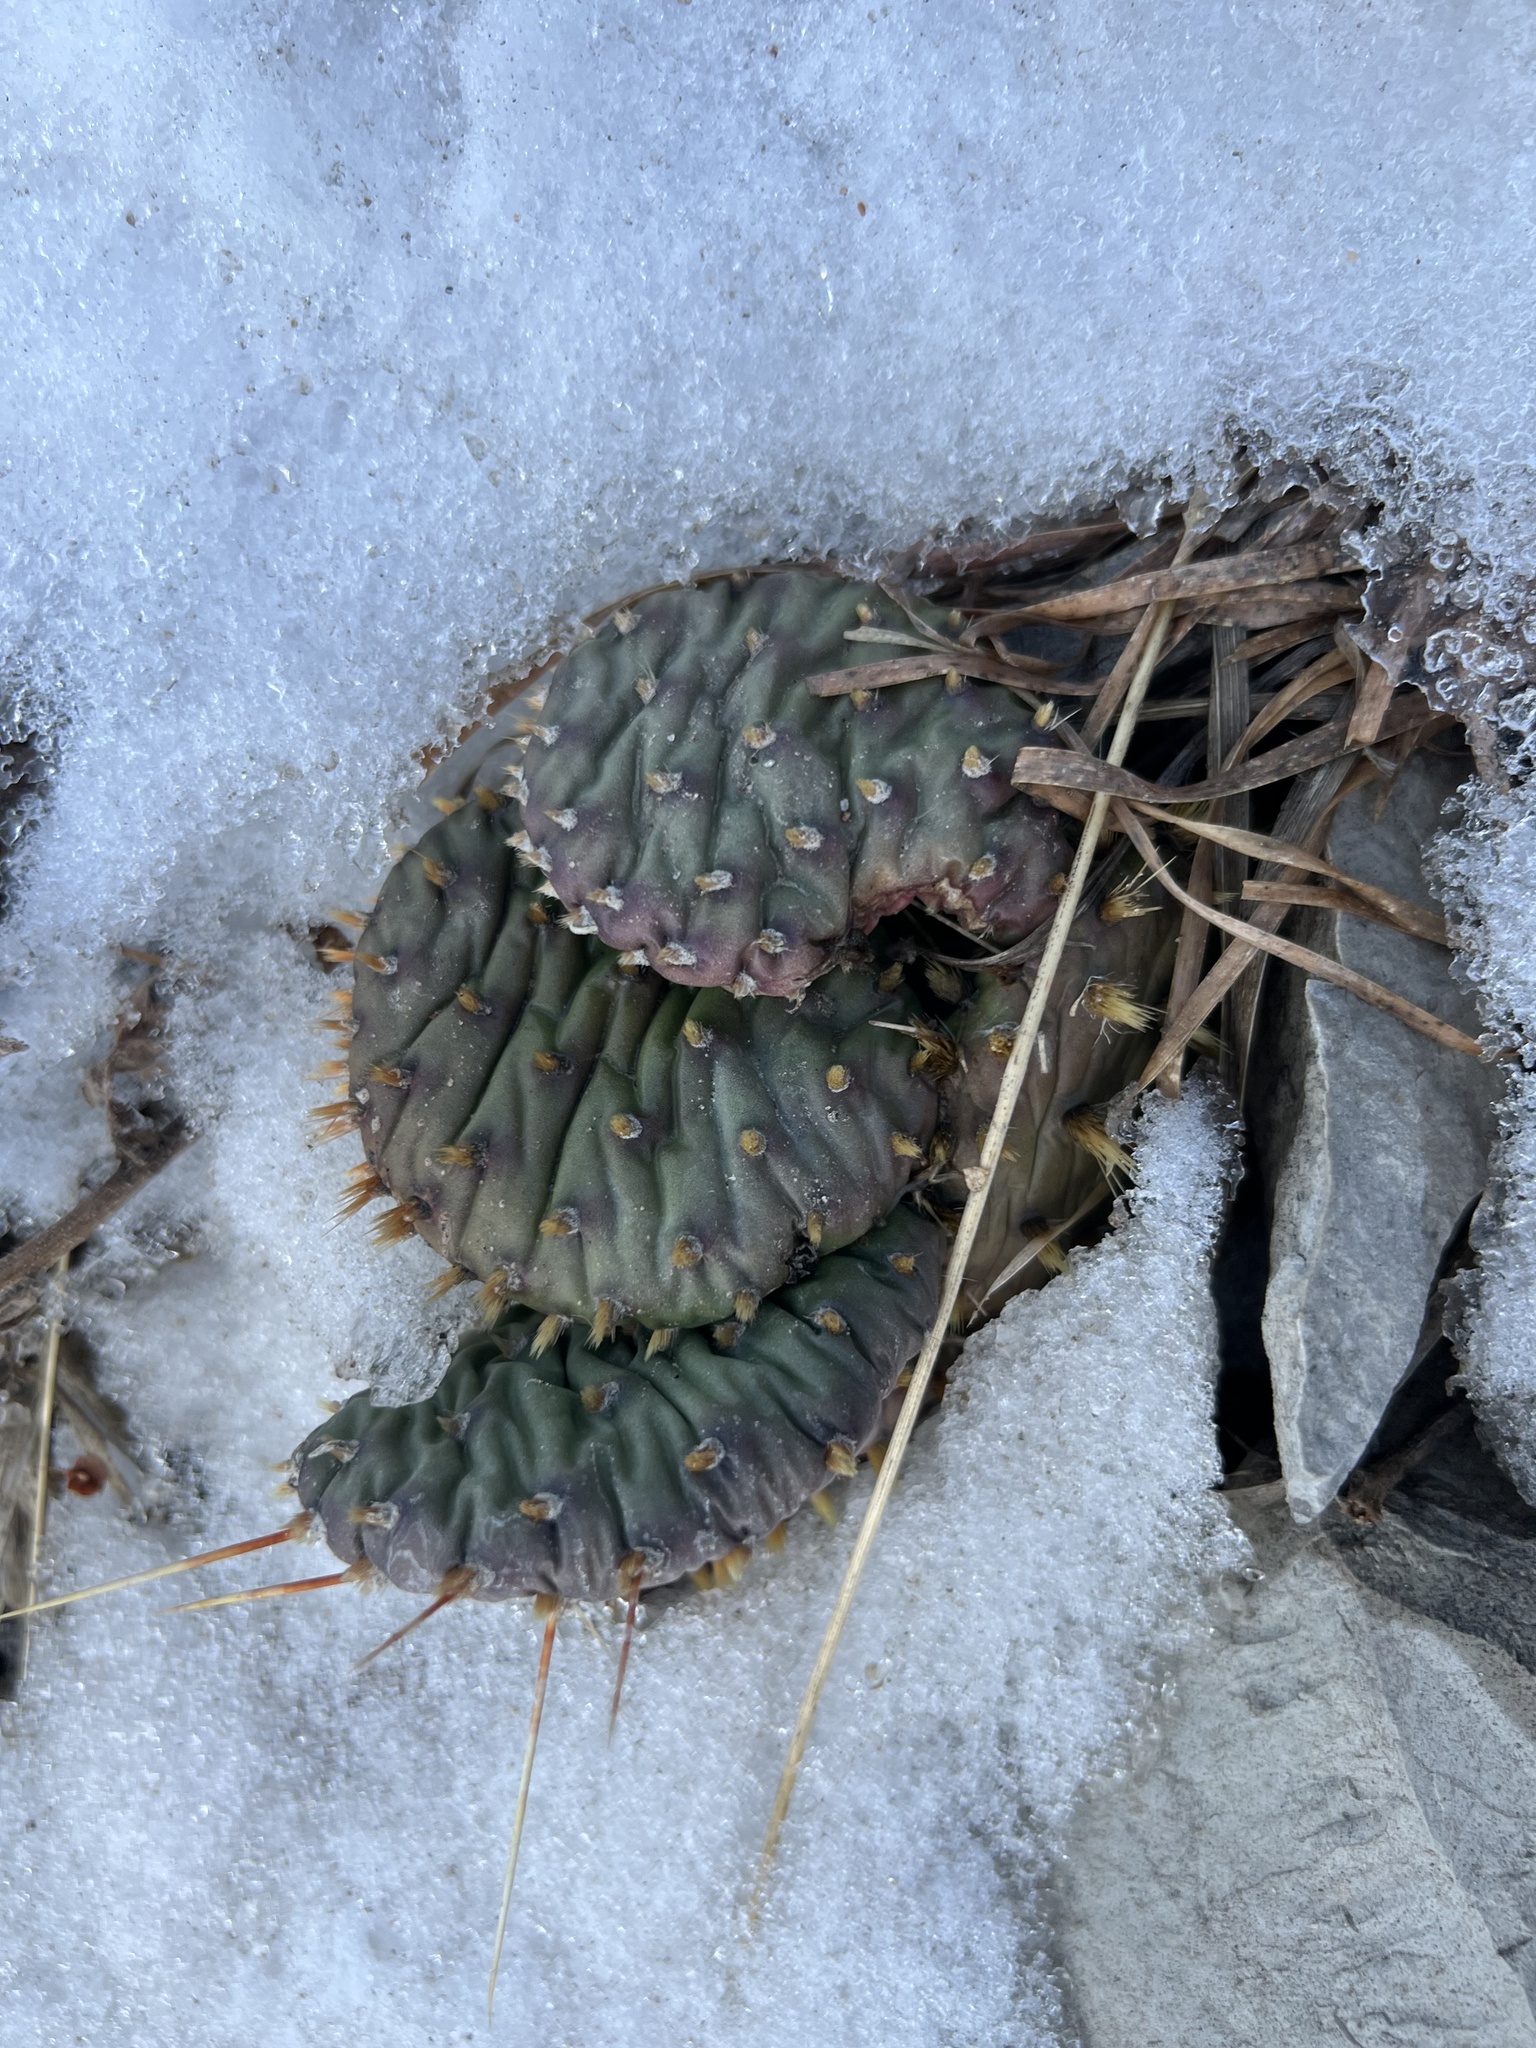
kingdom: Plantae
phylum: Tracheophyta
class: Magnoliopsida
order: Caryophyllales
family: Cactaceae
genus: Opuntia
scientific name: Opuntia macrorhiza
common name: Grassland pricklypear
